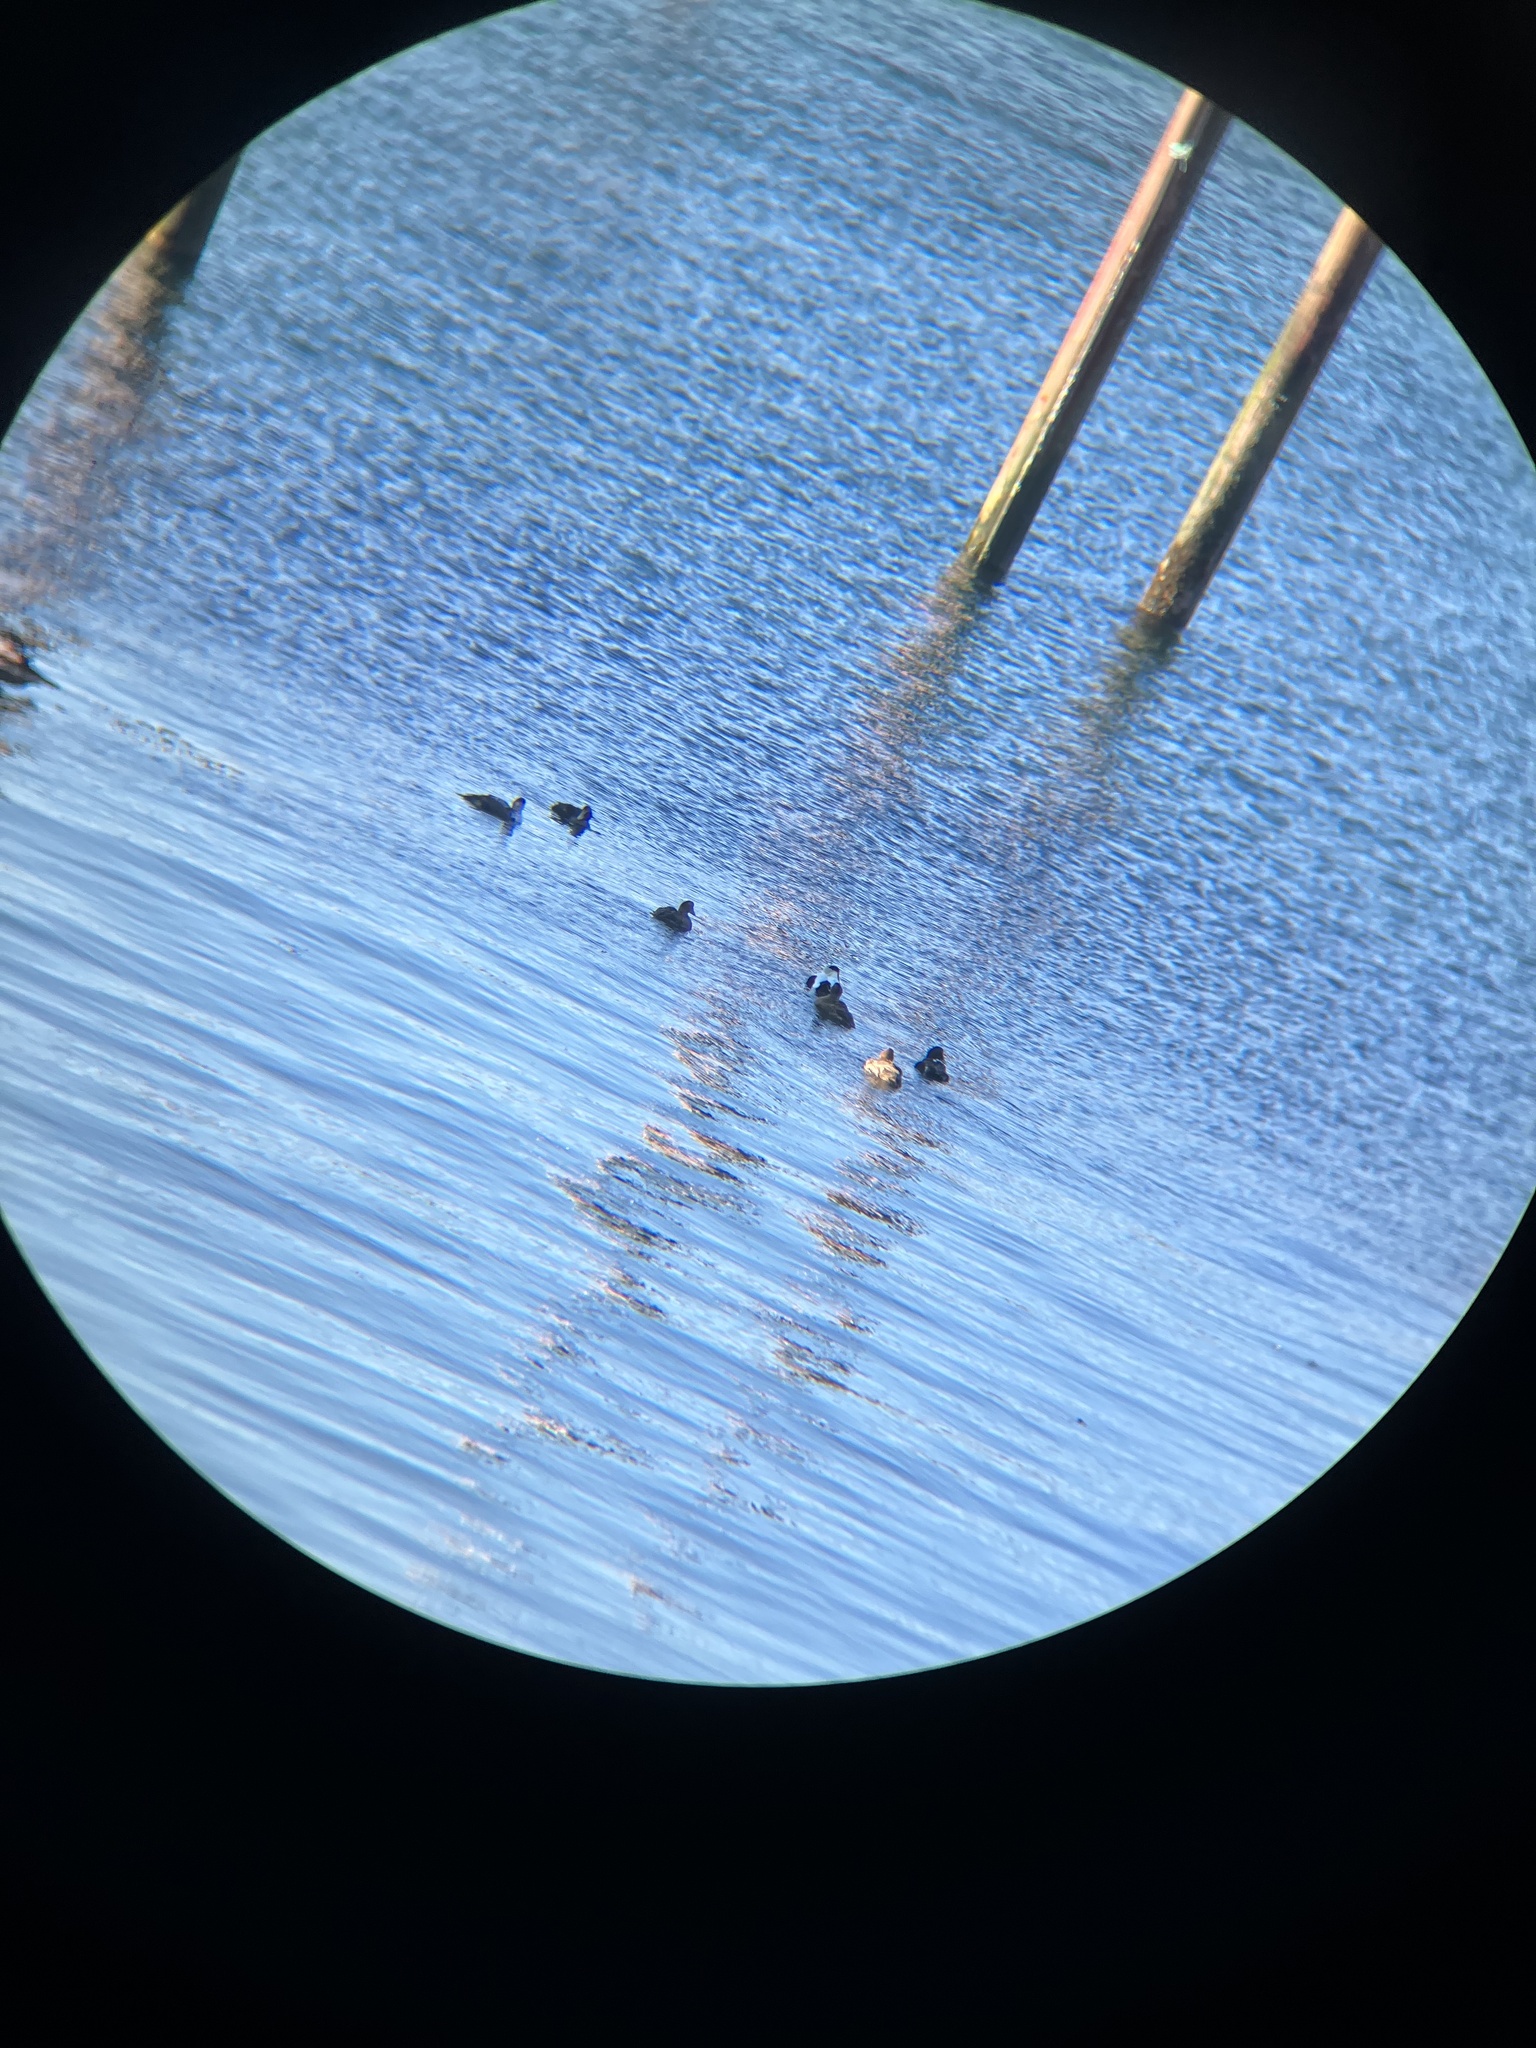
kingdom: Animalia
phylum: Chordata
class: Aves
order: Anseriformes
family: Anatidae
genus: Somateria
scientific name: Somateria mollissima
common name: Common eider
